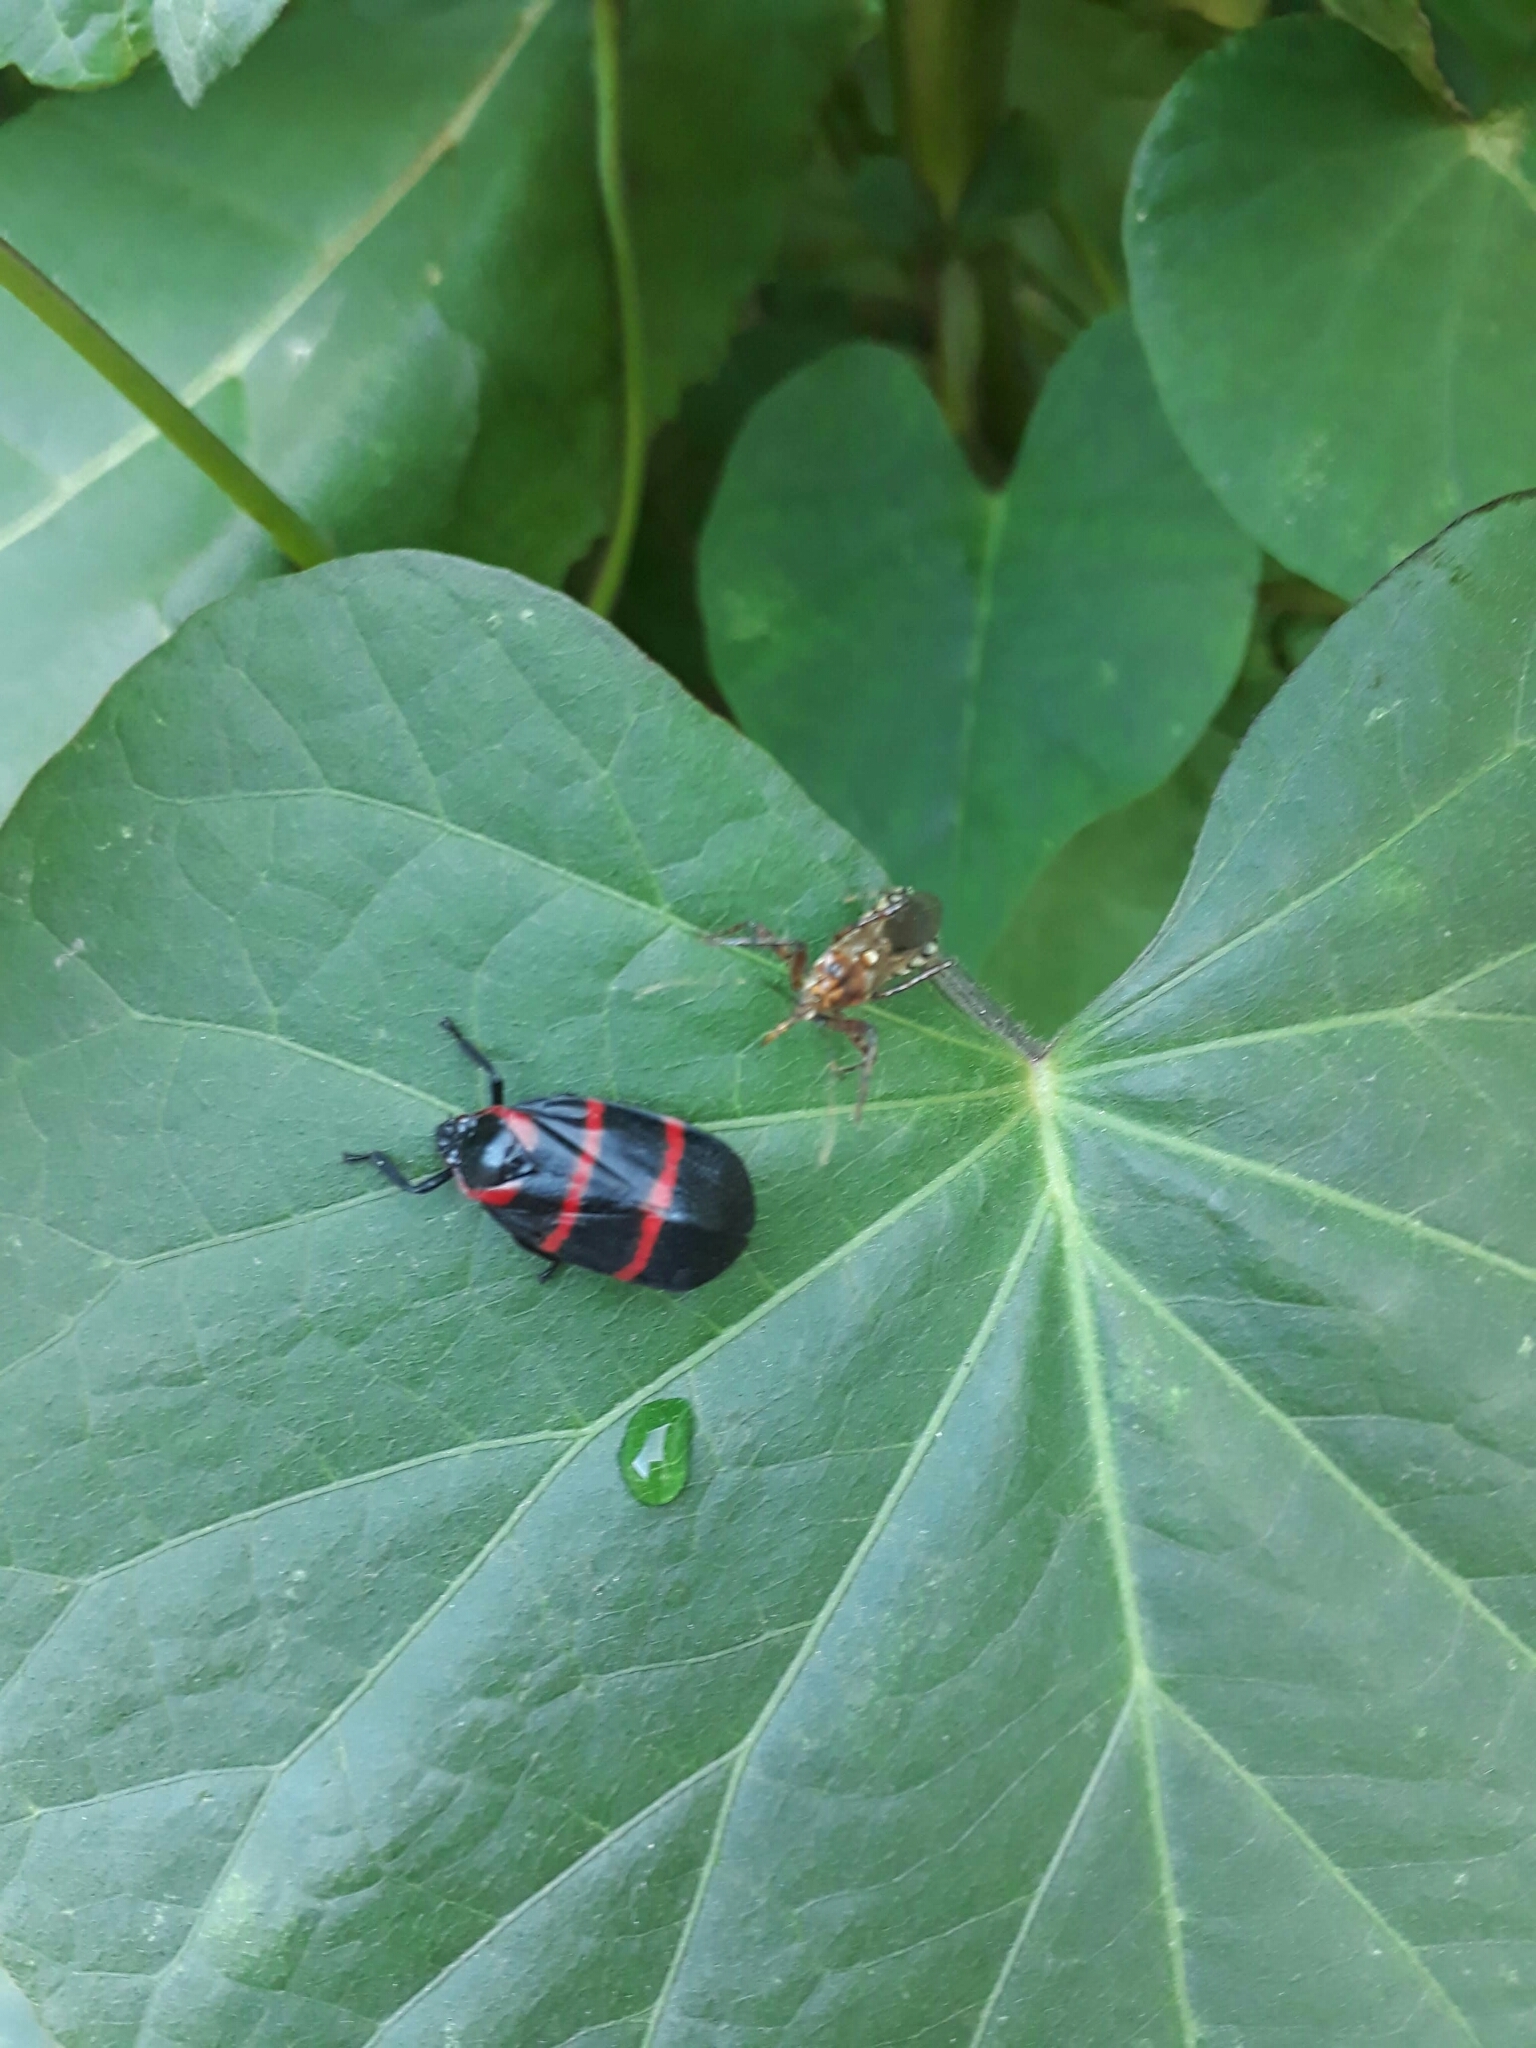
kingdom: Animalia
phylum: Arthropoda
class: Insecta
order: Hemiptera
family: Cercopidae
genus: Huaina
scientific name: Huaina inca
